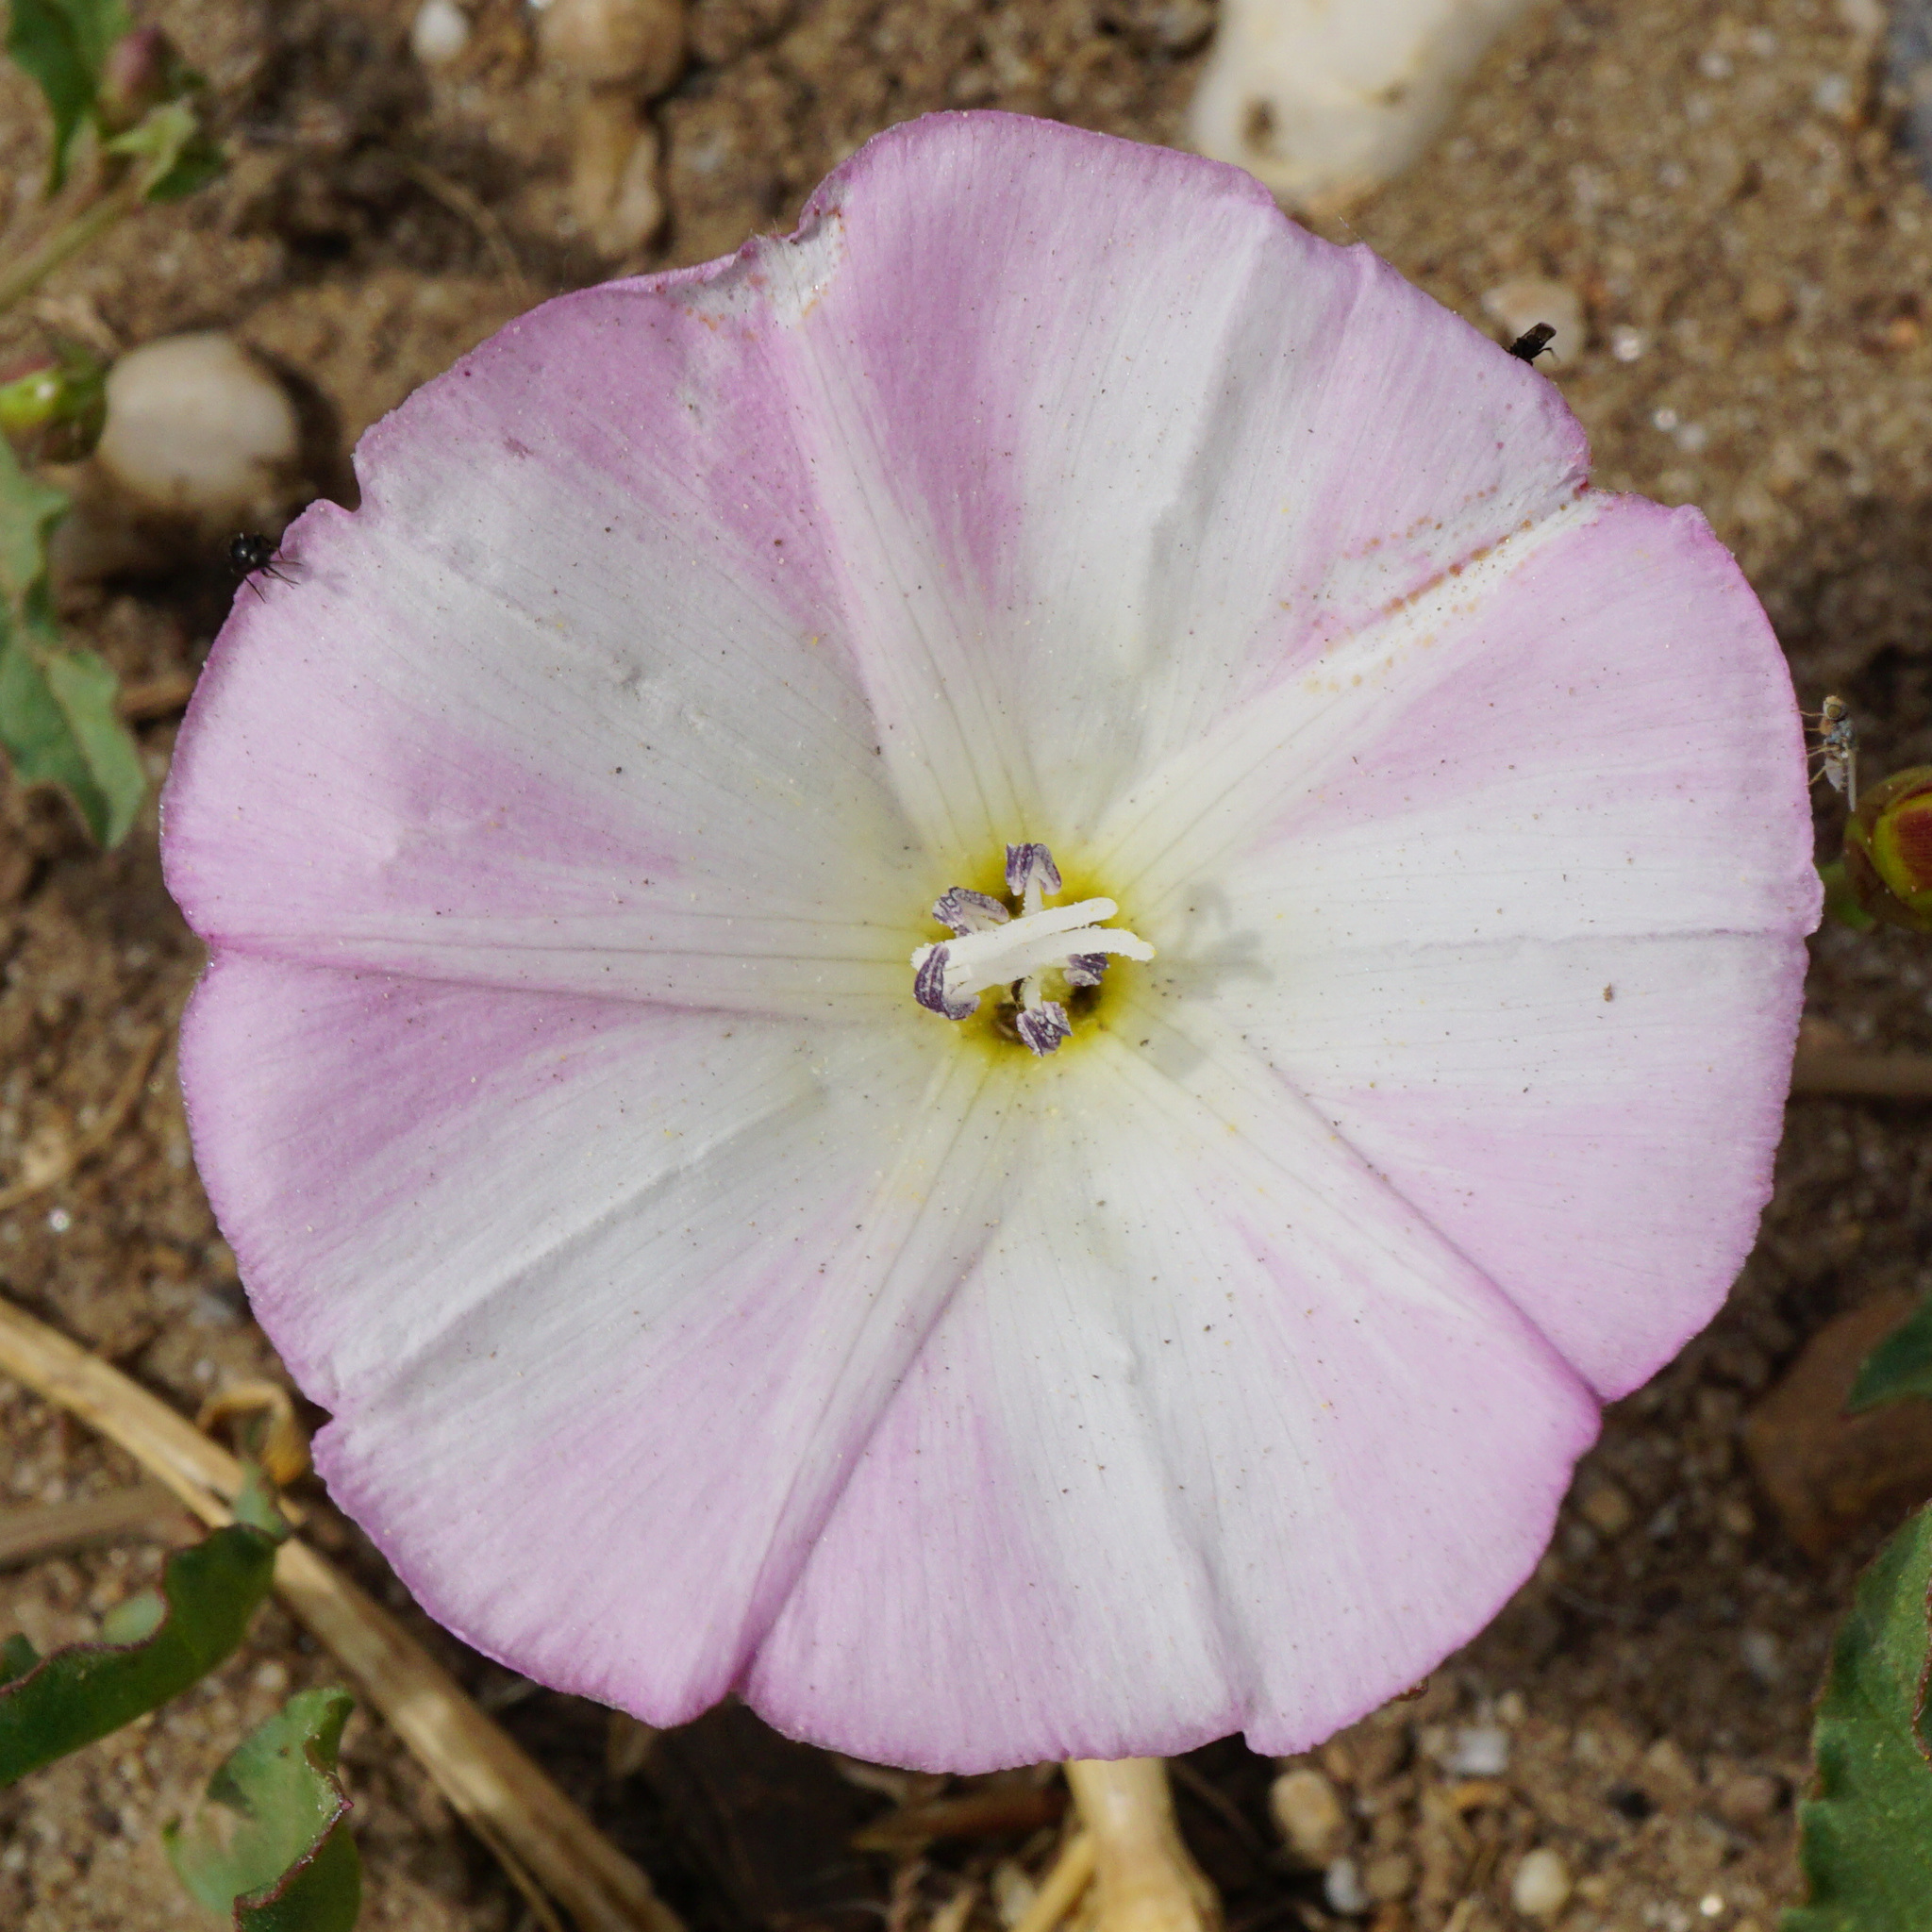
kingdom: Plantae
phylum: Tracheophyta
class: Magnoliopsida
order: Solanales
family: Convolvulaceae
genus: Convolvulus
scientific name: Convolvulus arvensis
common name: Field bindweed
